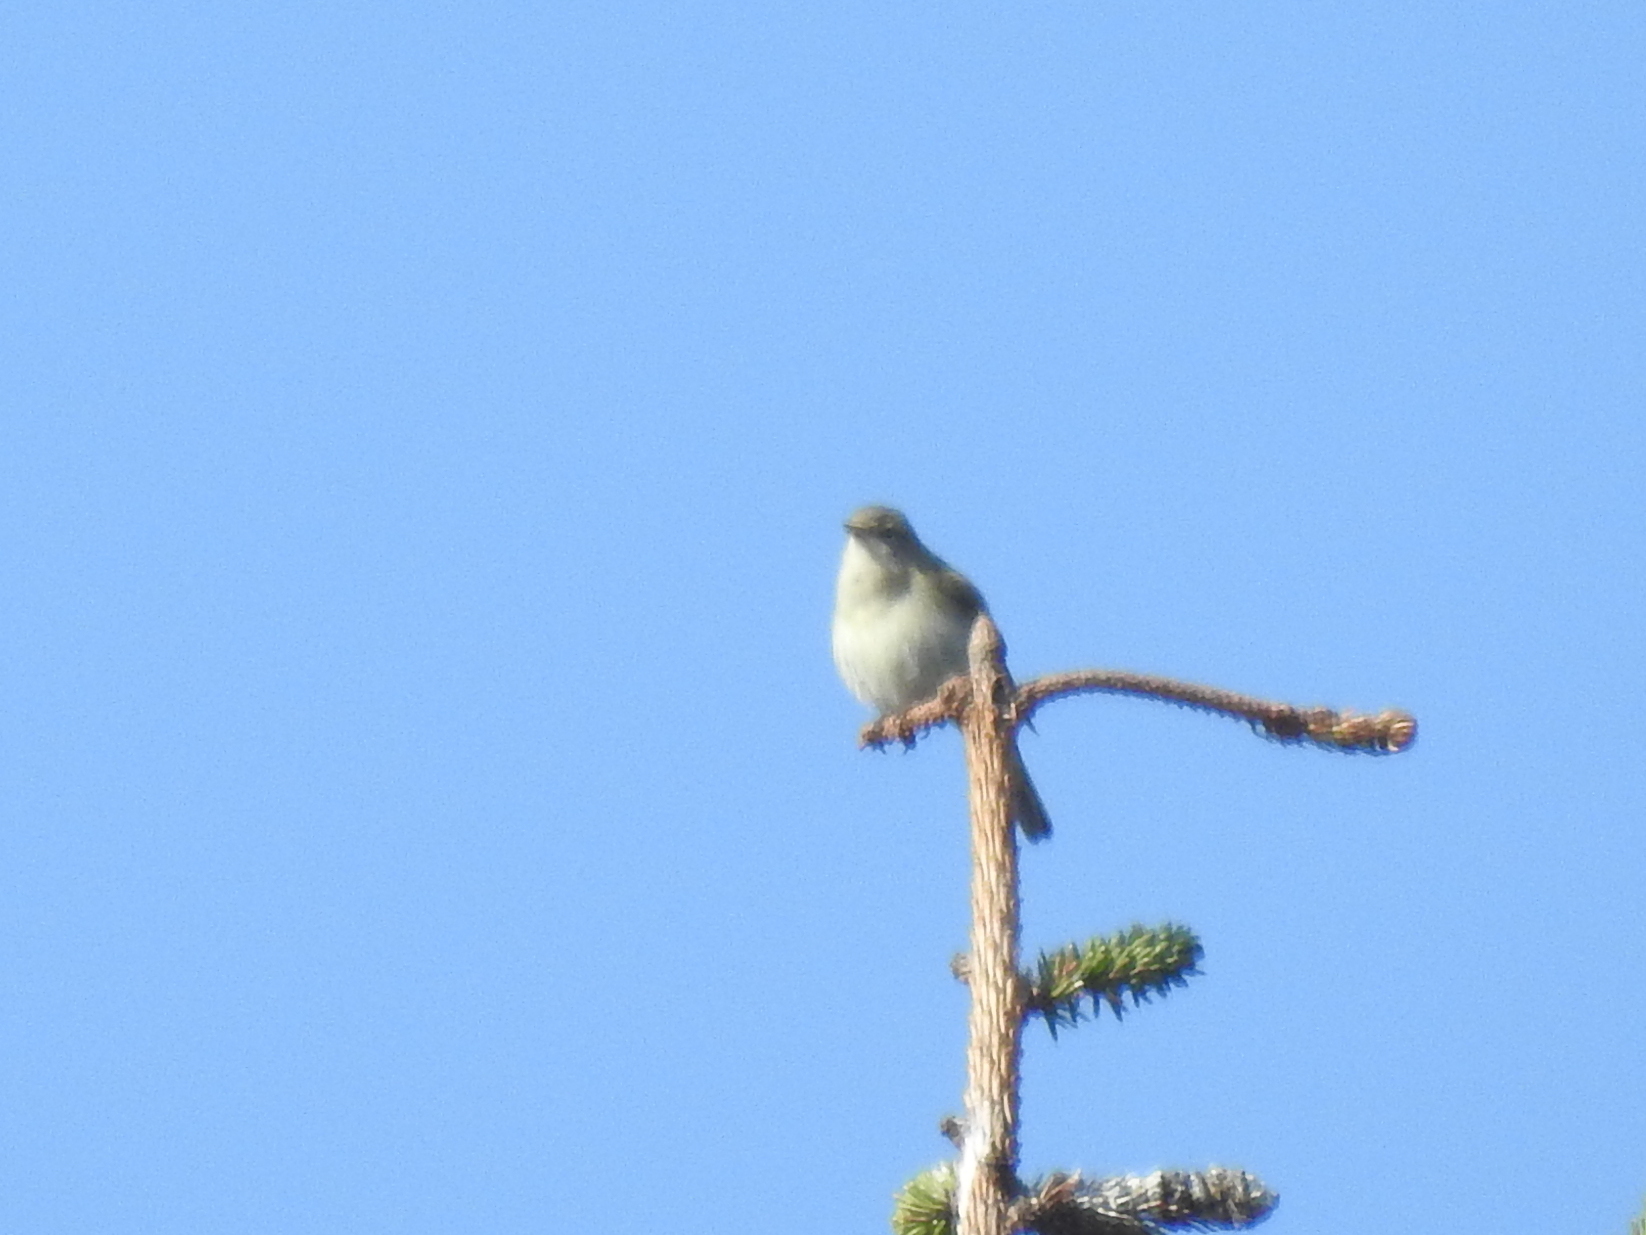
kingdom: Animalia
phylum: Chordata
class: Aves
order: Passeriformes
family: Phylloscopidae
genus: Phylloscopus
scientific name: Phylloscopus collybita
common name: Common chiffchaff
